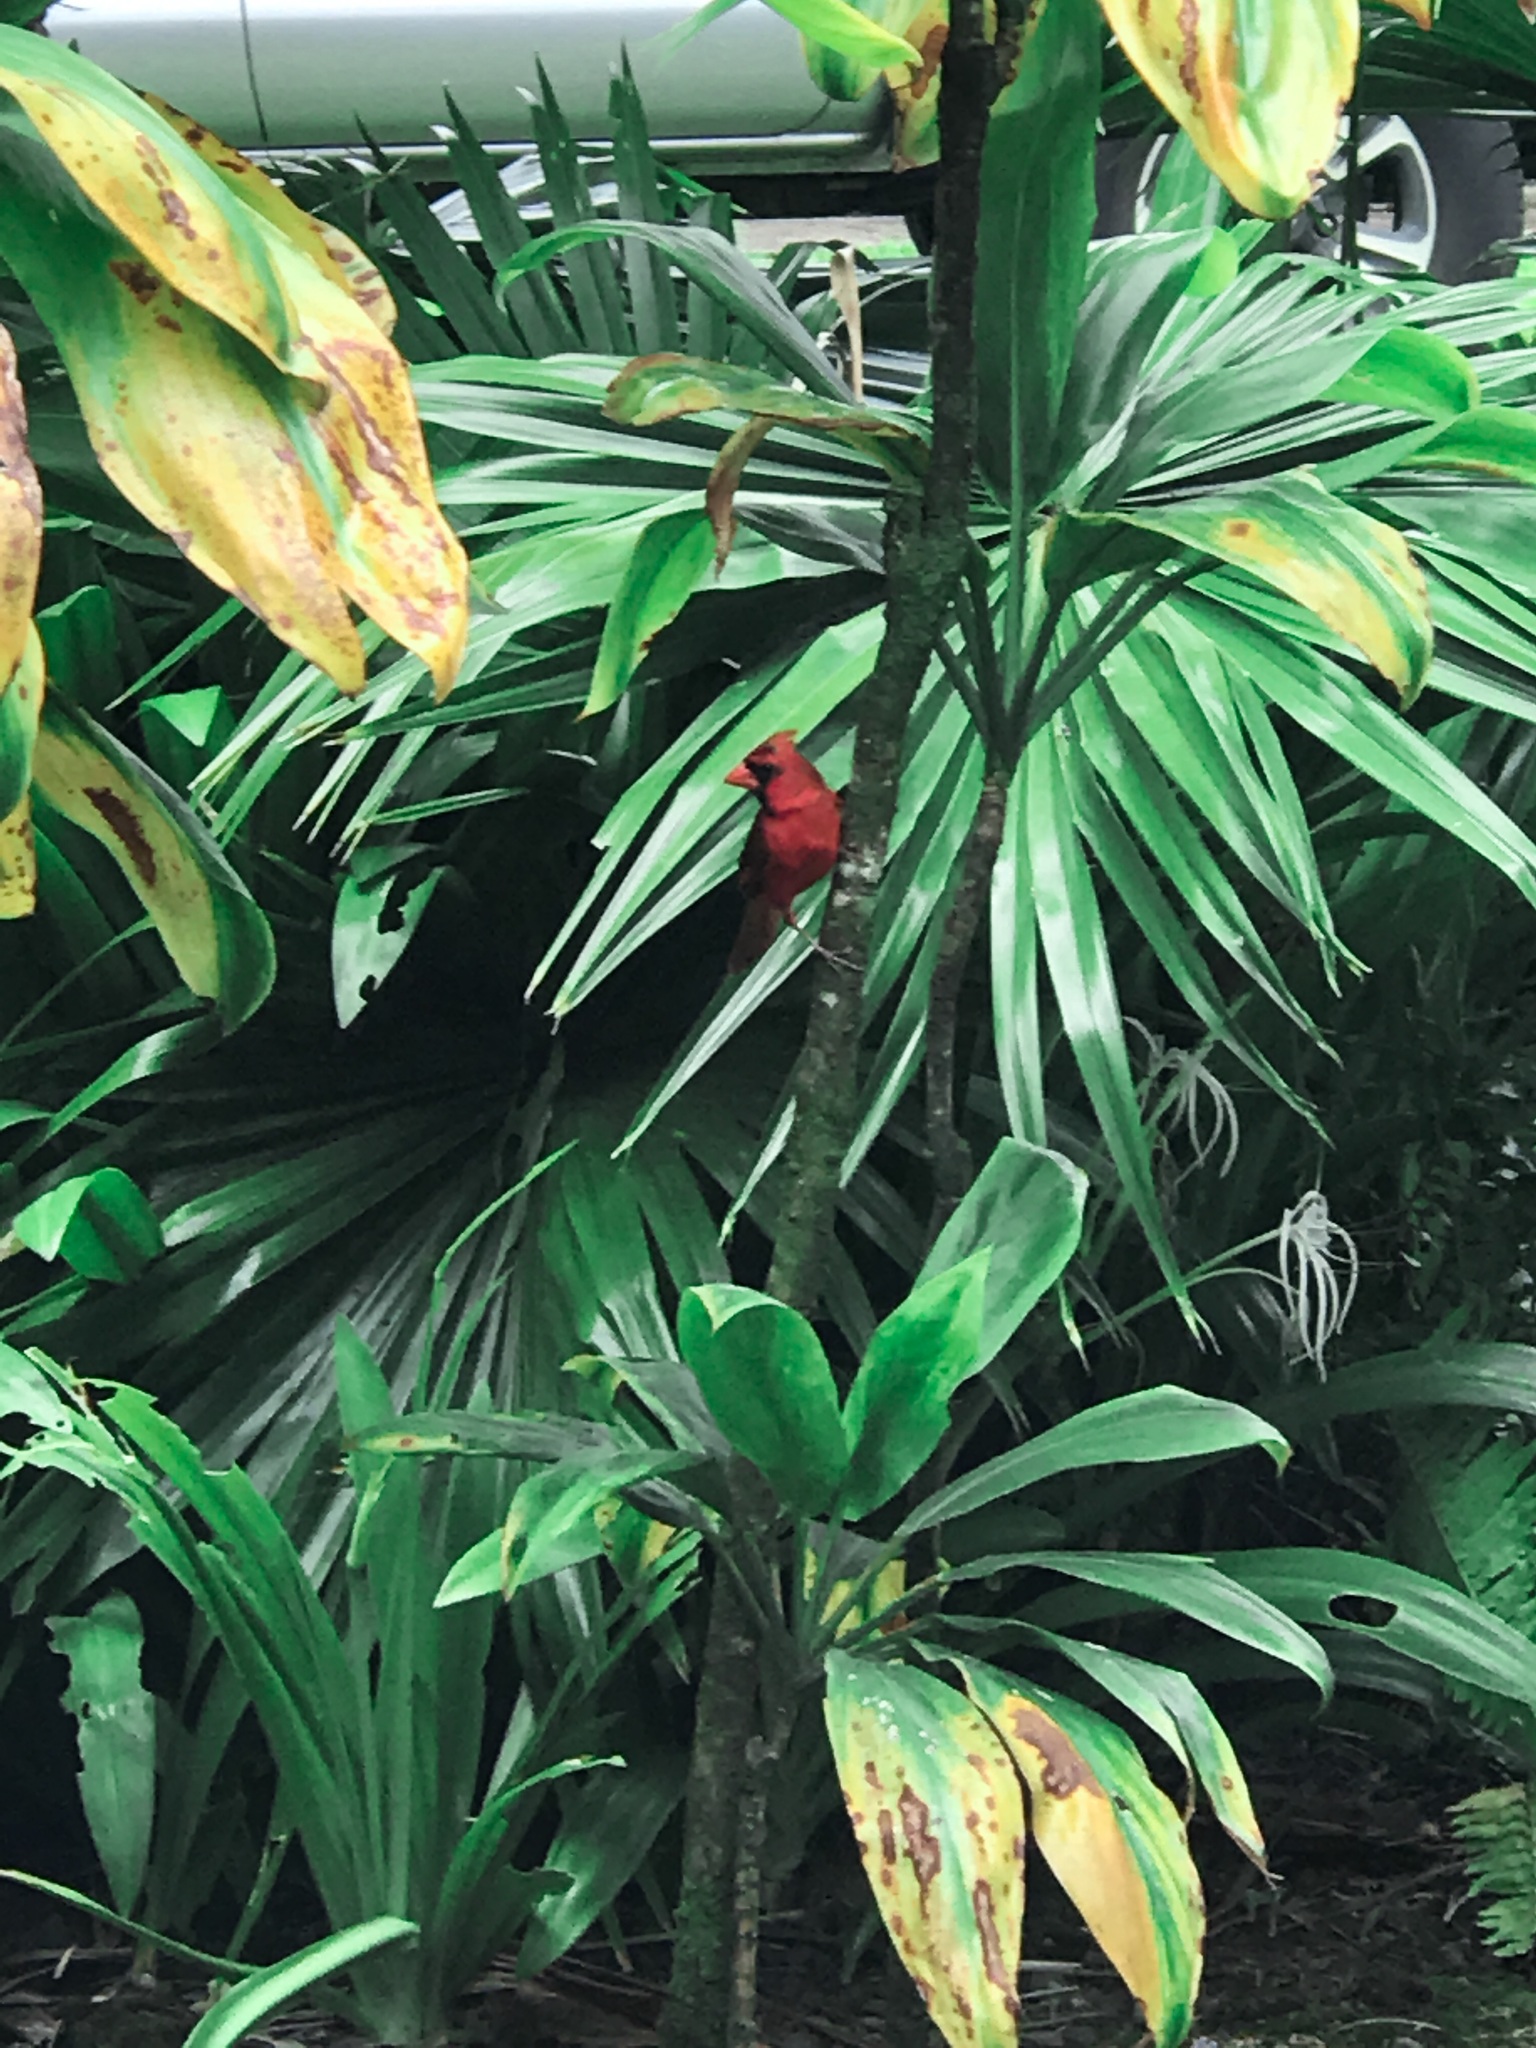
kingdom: Animalia
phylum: Chordata
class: Aves
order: Passeriformes
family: Cardinalidae
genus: Cardinalis
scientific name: Cardinalis cardinalis
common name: Northern cardinal
